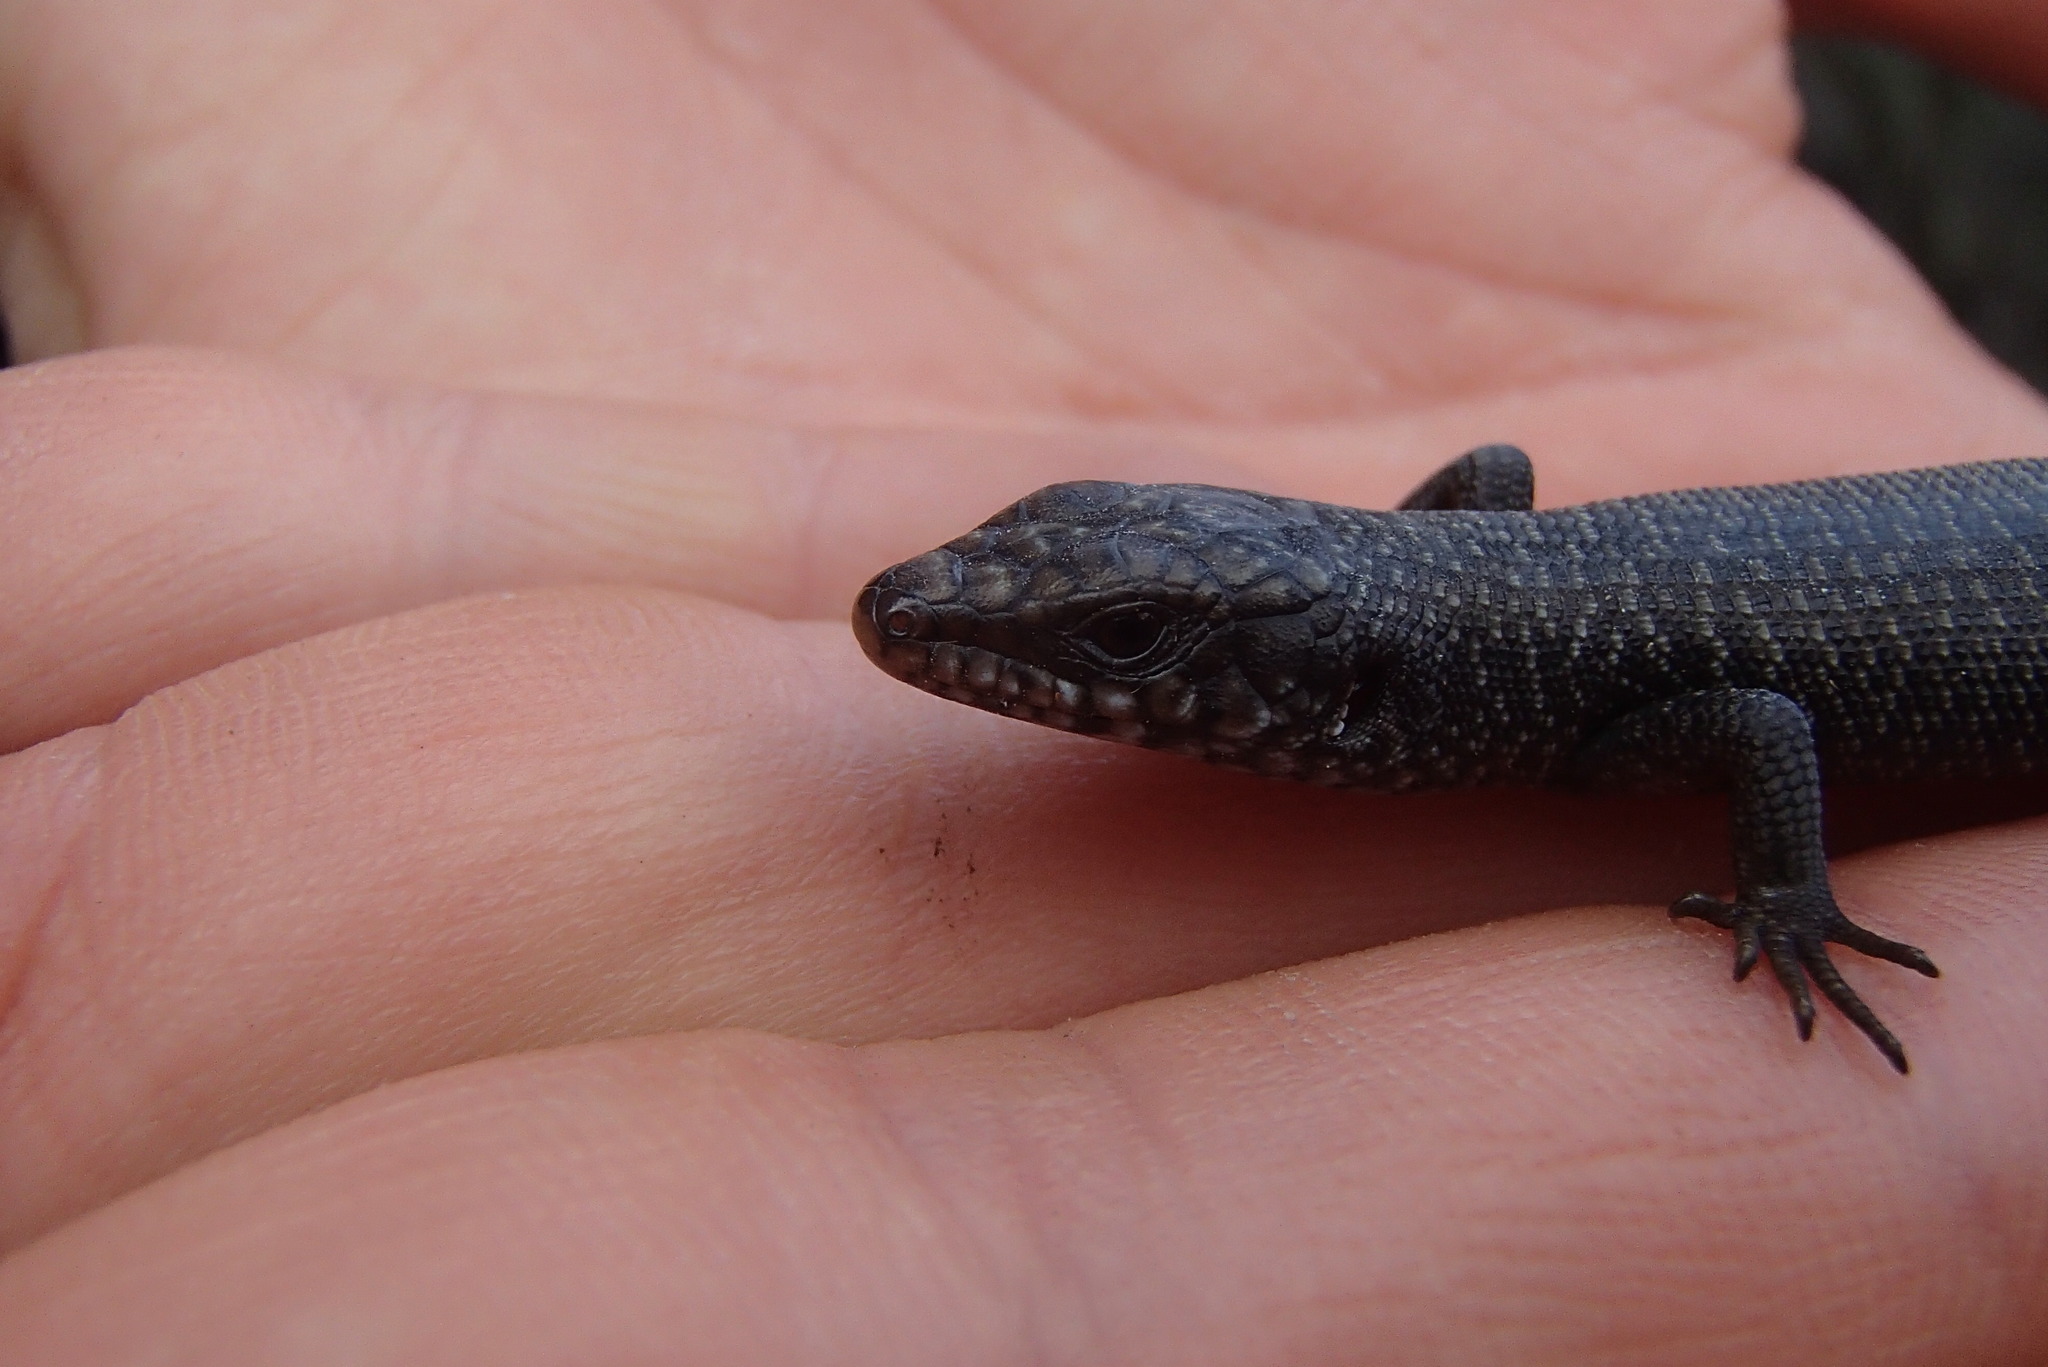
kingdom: Animalia
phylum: Chordata
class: Squamata
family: Scincidae
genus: Egernia
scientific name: Egernia saxatilis
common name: Black crevice-skink
